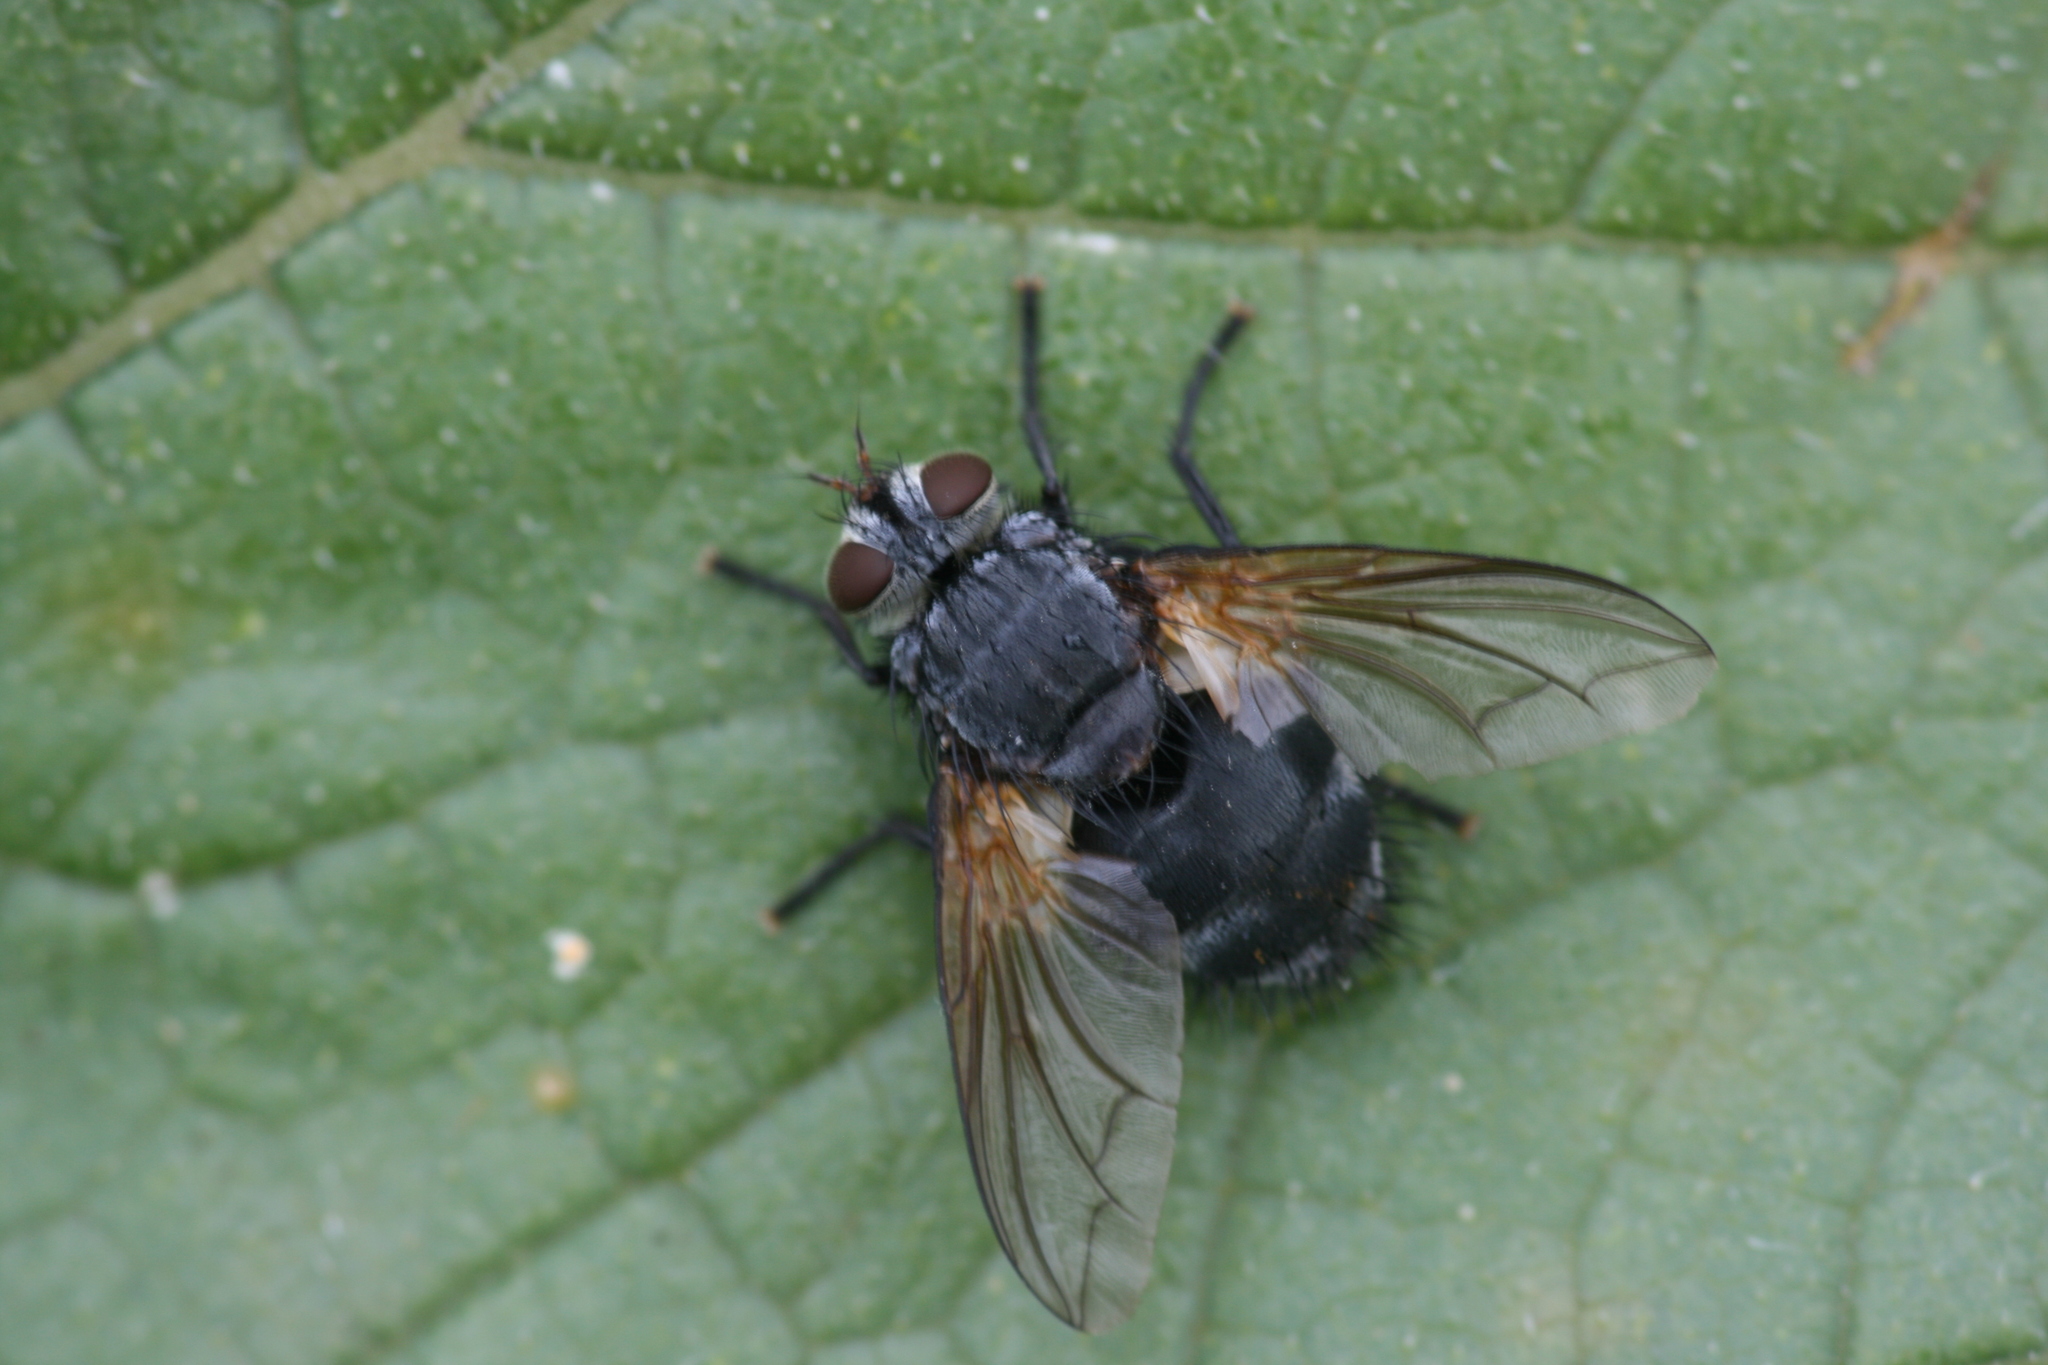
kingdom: Animalia
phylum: Arthropoda
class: Insecta
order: Diptera
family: Tachinidae
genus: Nemoraea
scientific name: Nemoraea pellucida
